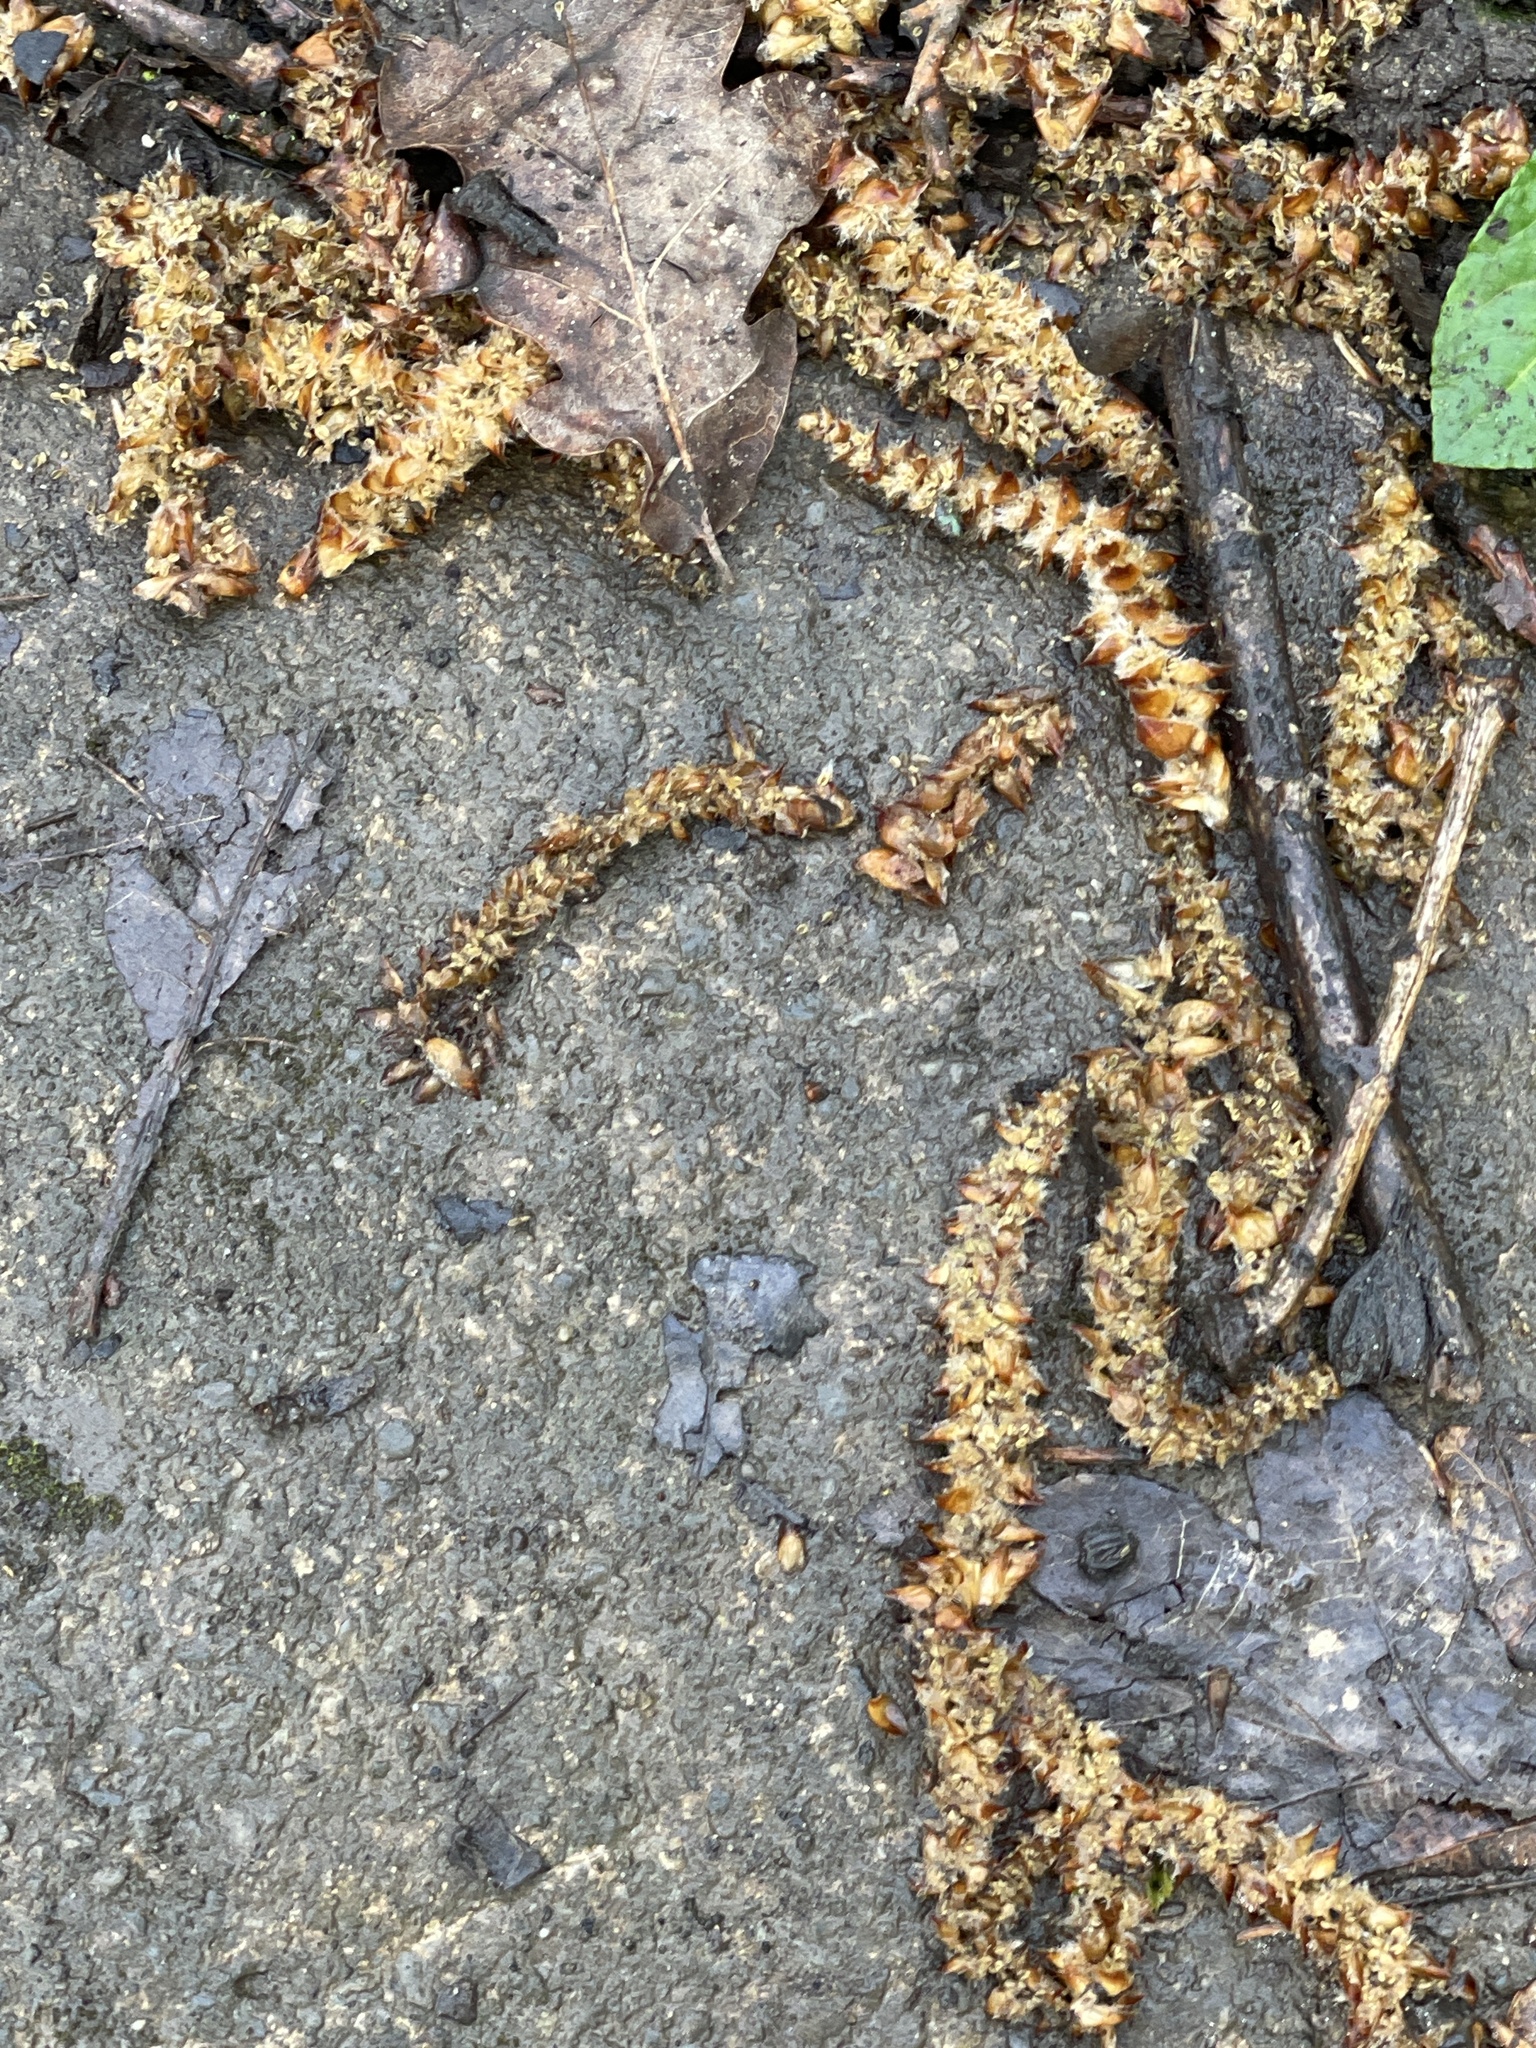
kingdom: Plantae
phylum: Tracheophyta
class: Magnoliopsida
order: Fagales
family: Betulaceae
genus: Carpinus
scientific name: Carpinus betulus
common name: Hornbeam
